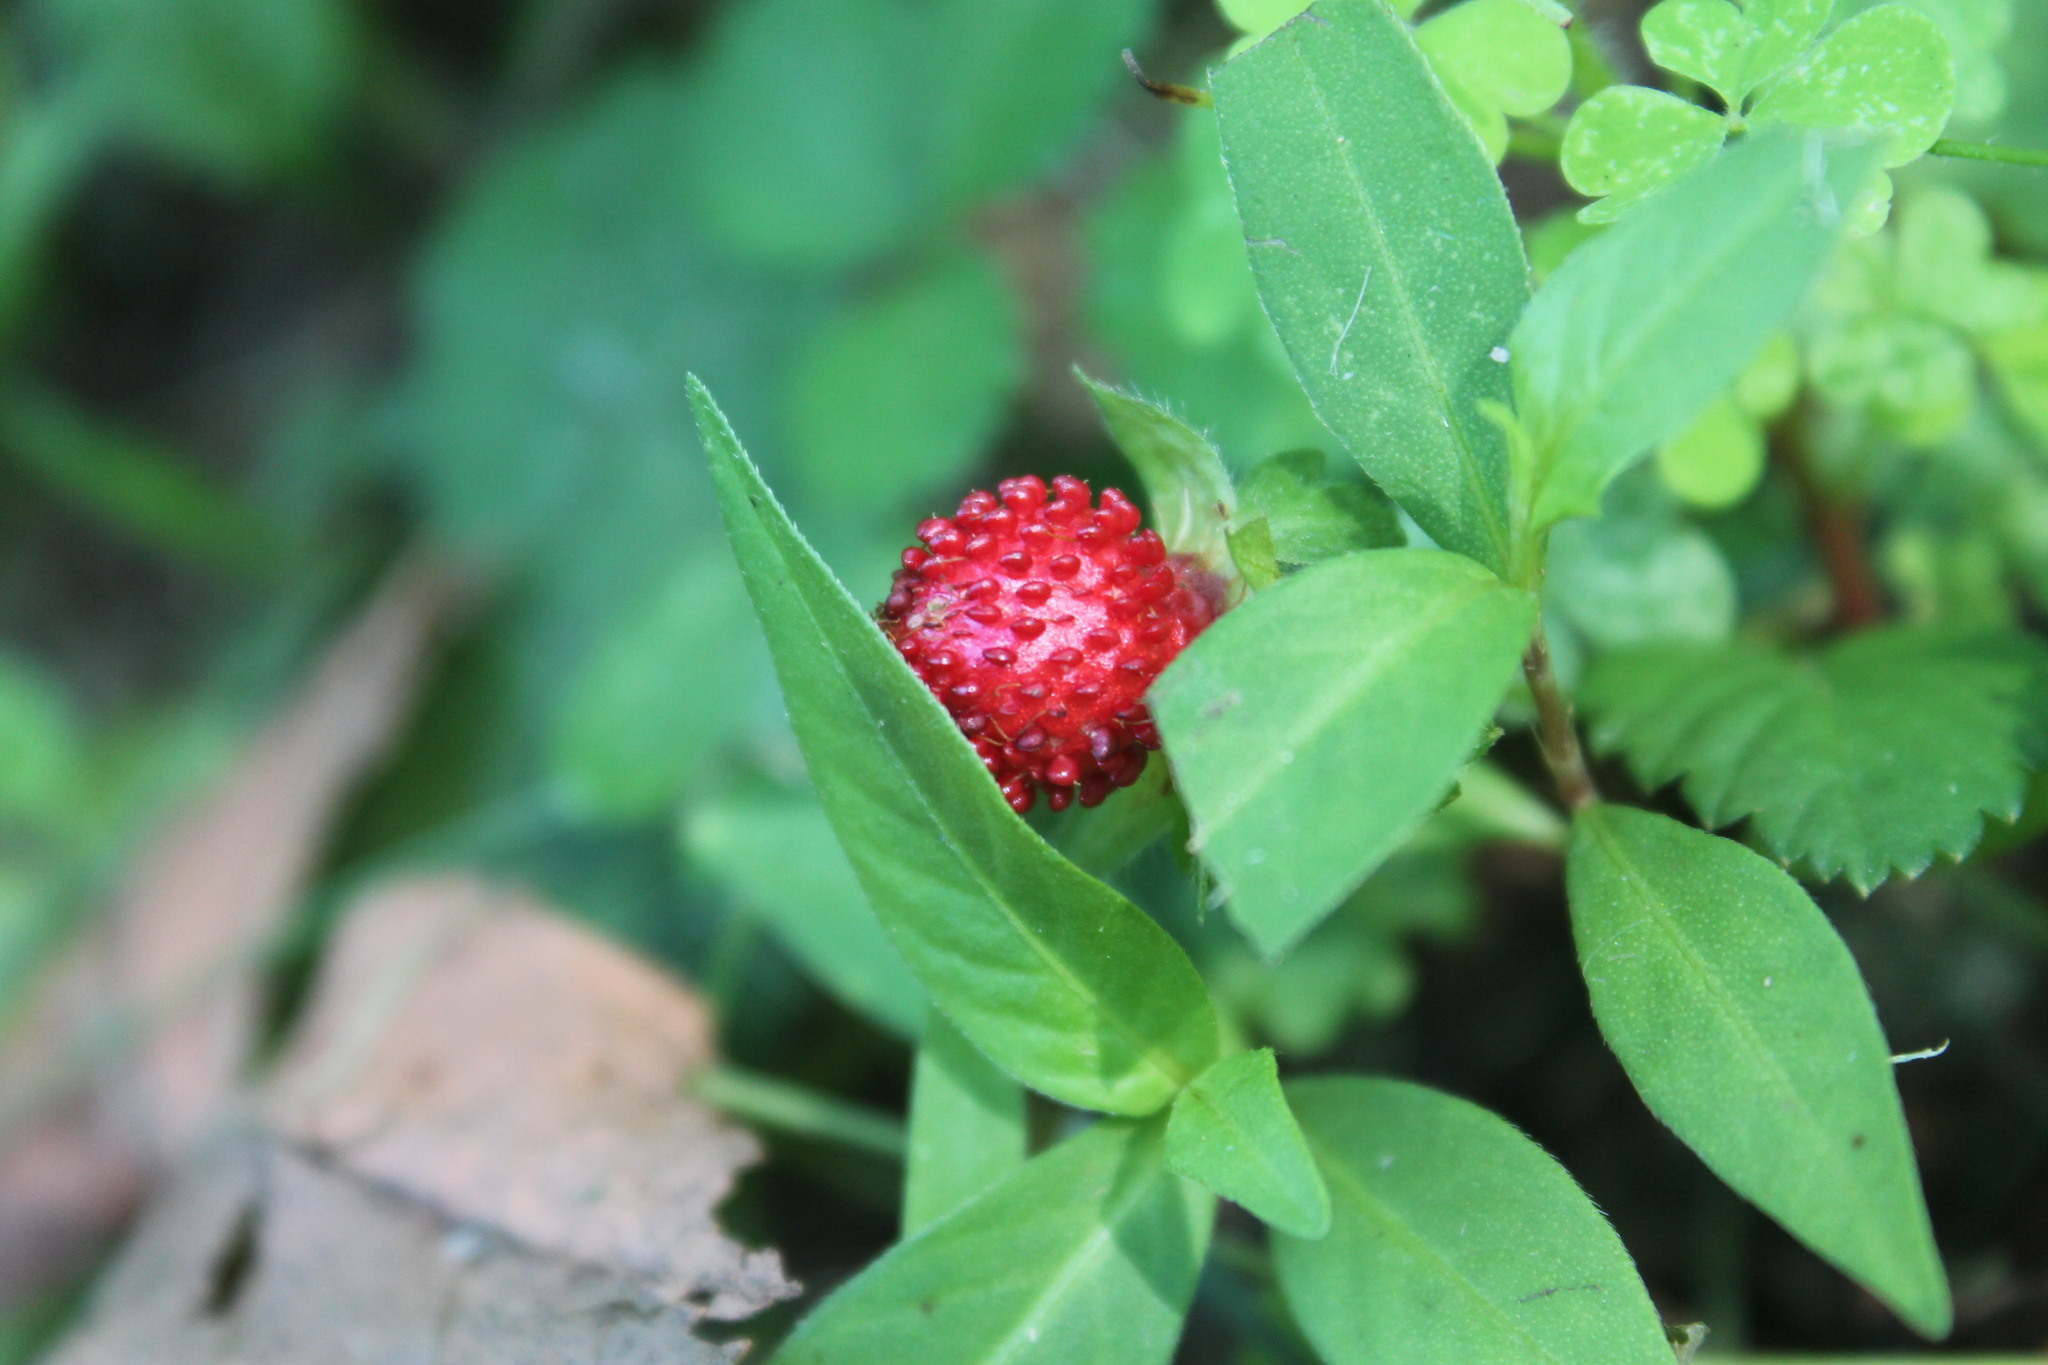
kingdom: Plantae
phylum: Tracheophyta
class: Magnoliopsida
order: Rosales
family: Rosaceae
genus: Potentilla
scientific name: Potentilla indica
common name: Yellow-flowered strawberry
